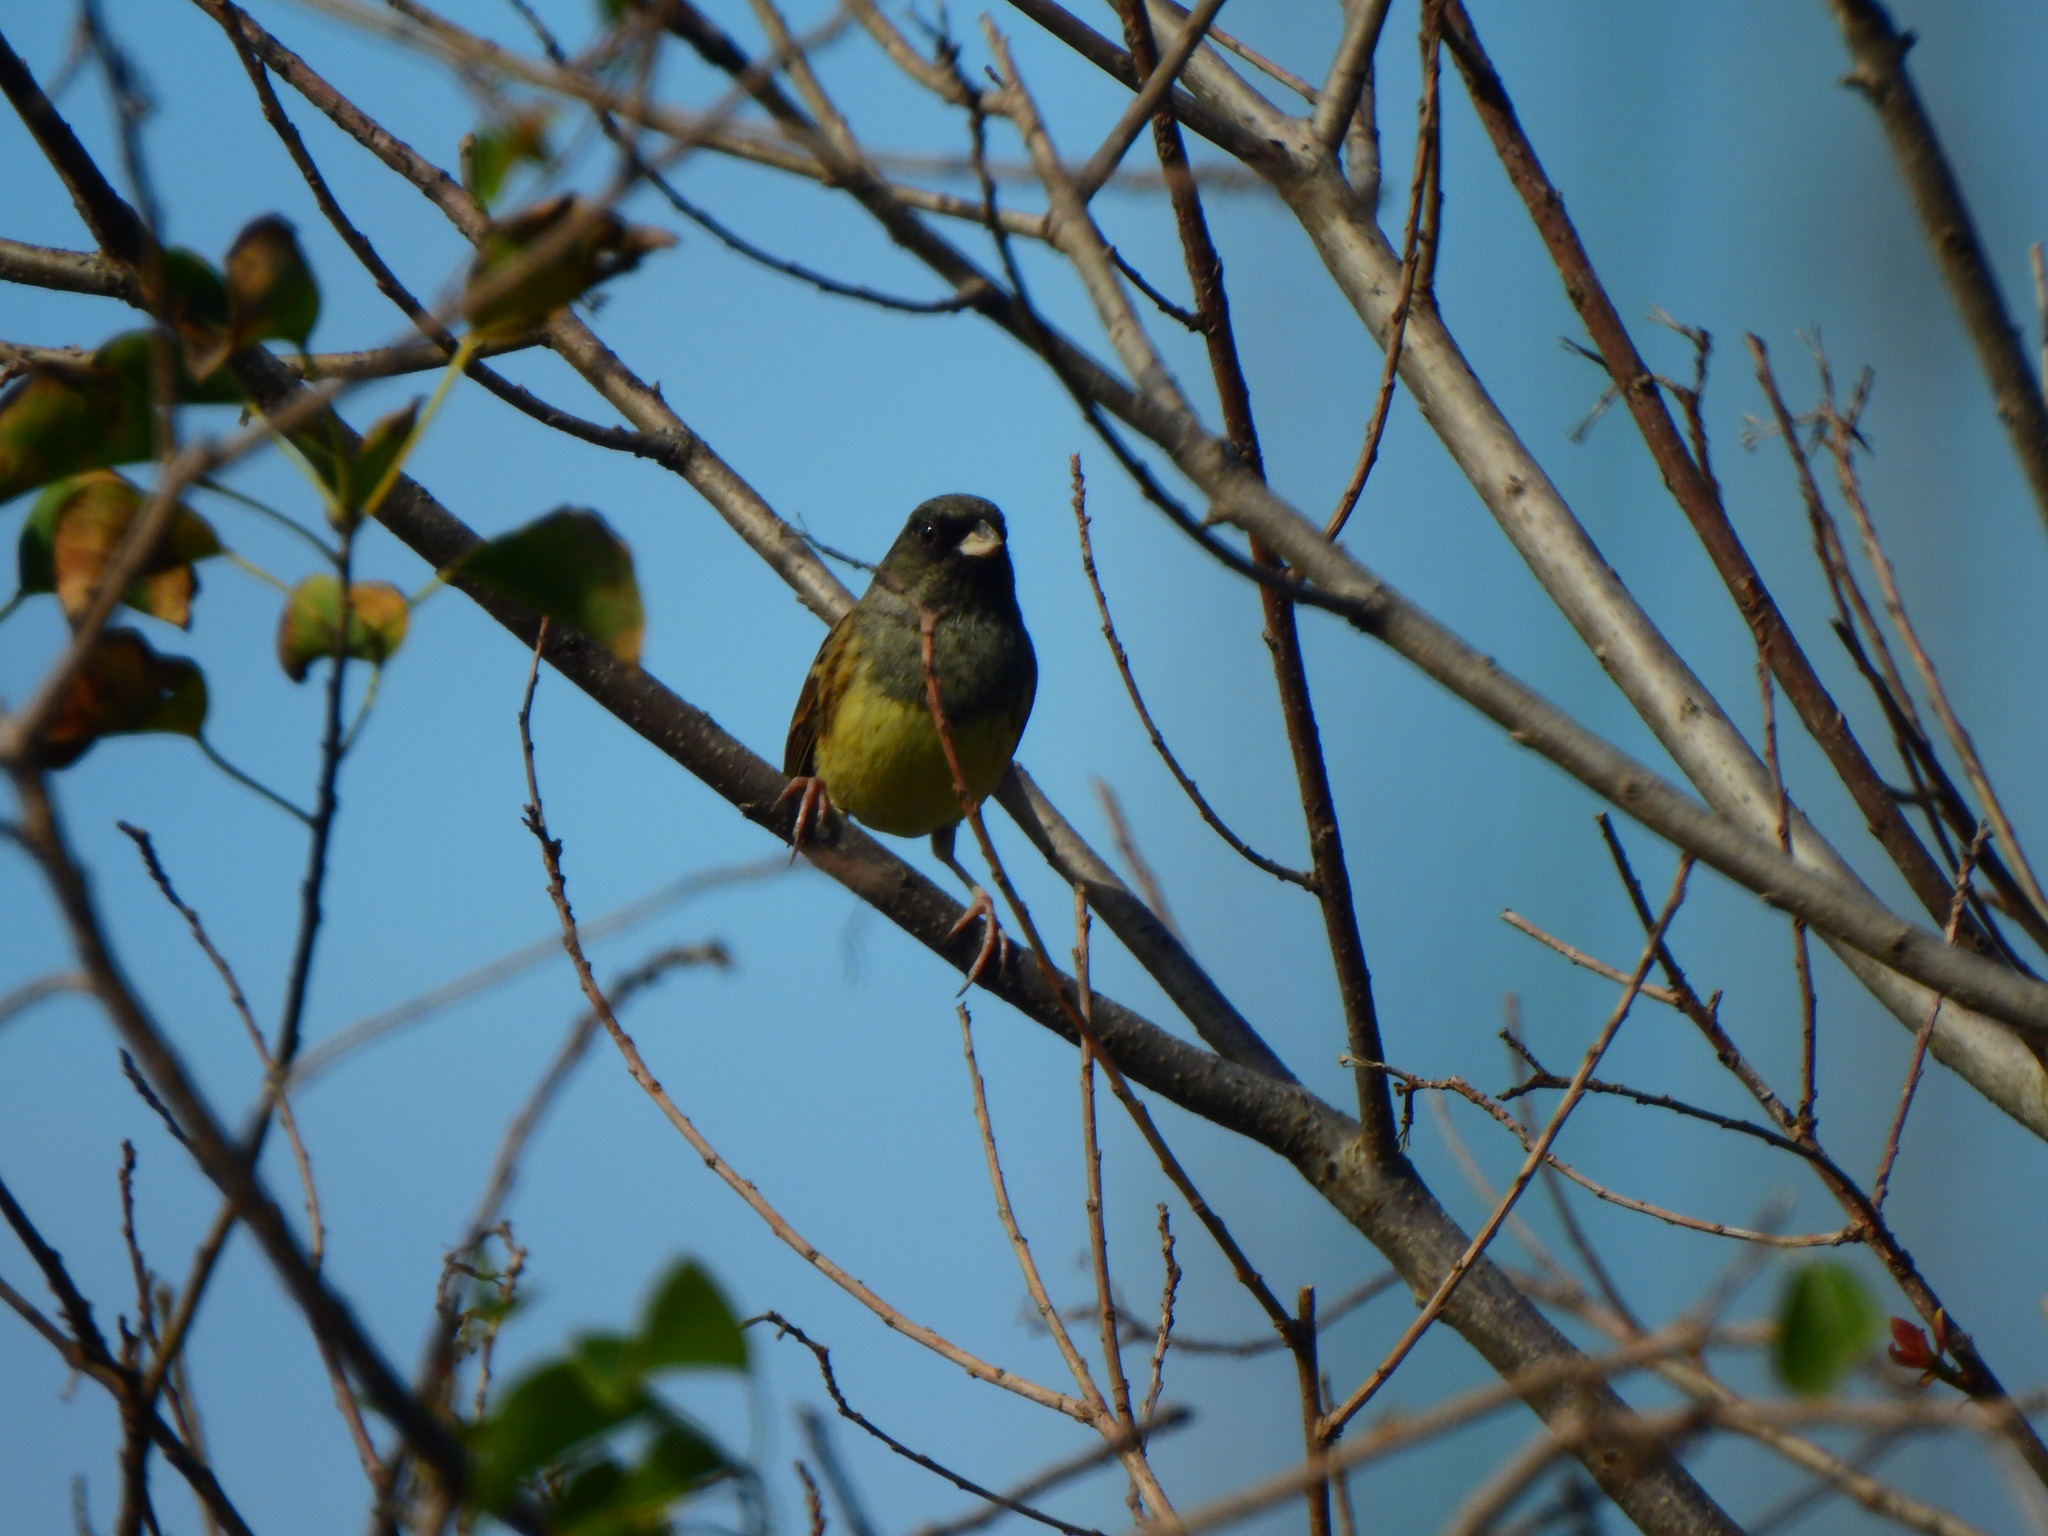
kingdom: Animalia
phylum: Chordata
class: Aves
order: Passeriformes
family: Emberizidae
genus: Emberiza
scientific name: Emberiza spodocephala
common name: Black-faced bunting
